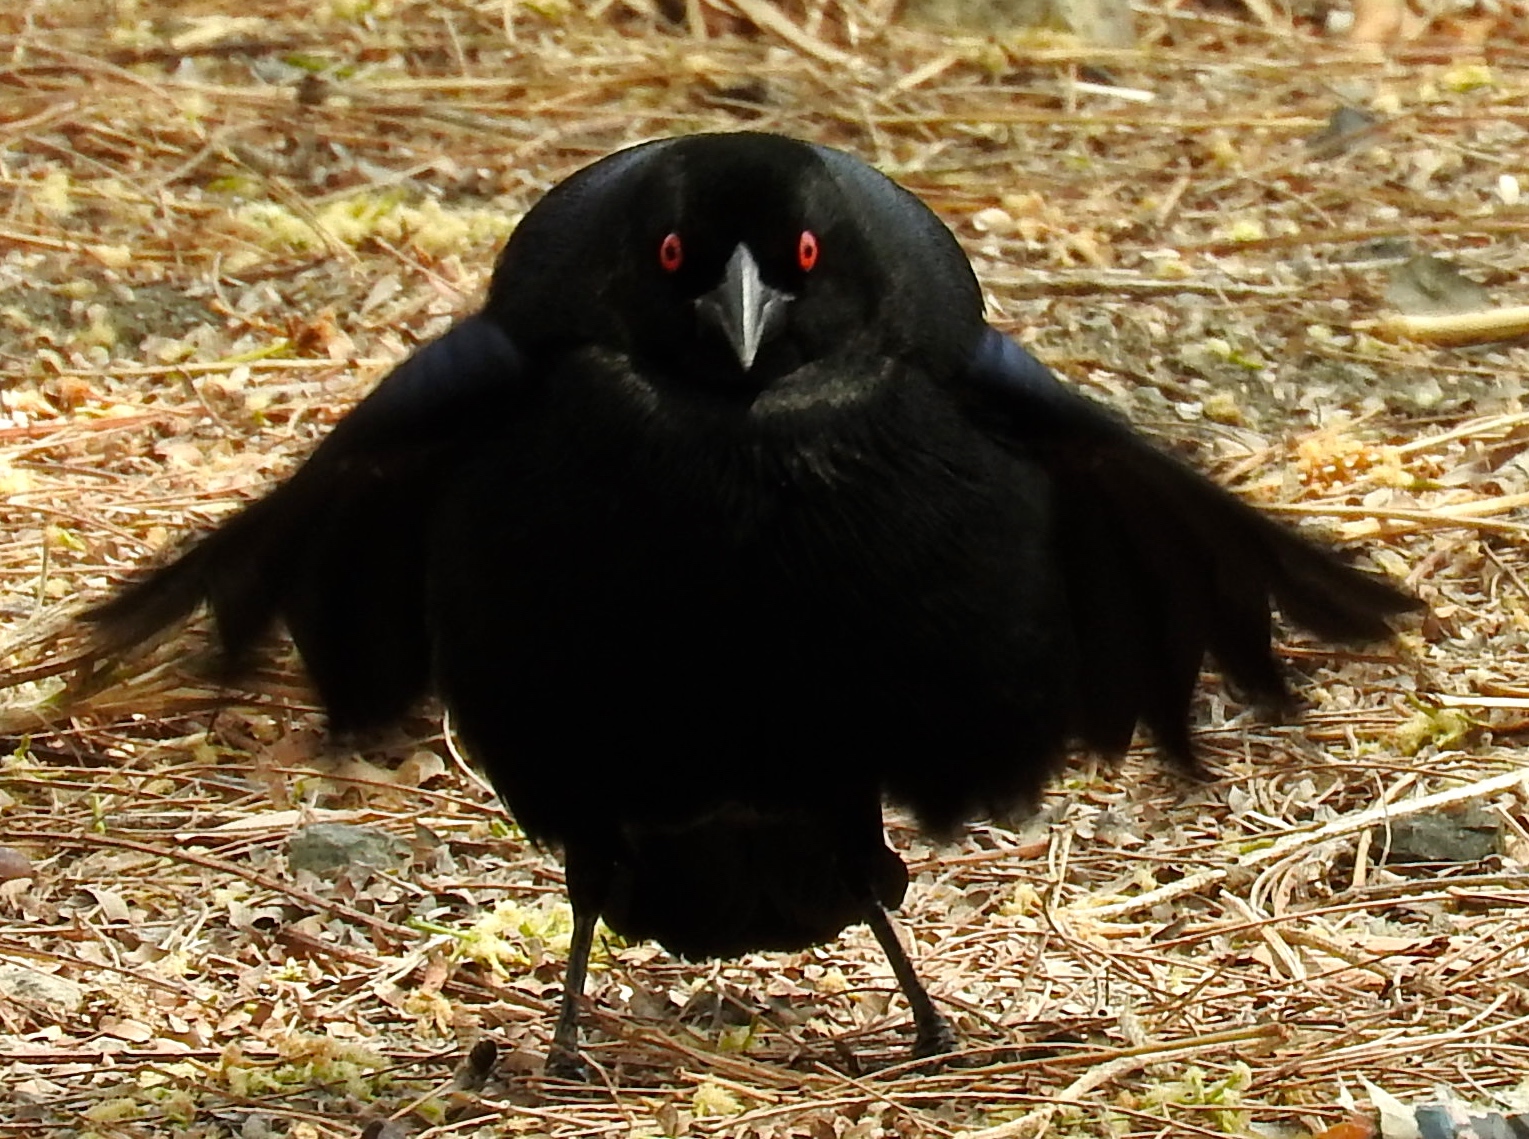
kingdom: Animalia
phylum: Chordata
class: Aves
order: Passeriformes
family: Icteridae
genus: Molothrus
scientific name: Molothrus aeneus
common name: Bronzed cowbird
